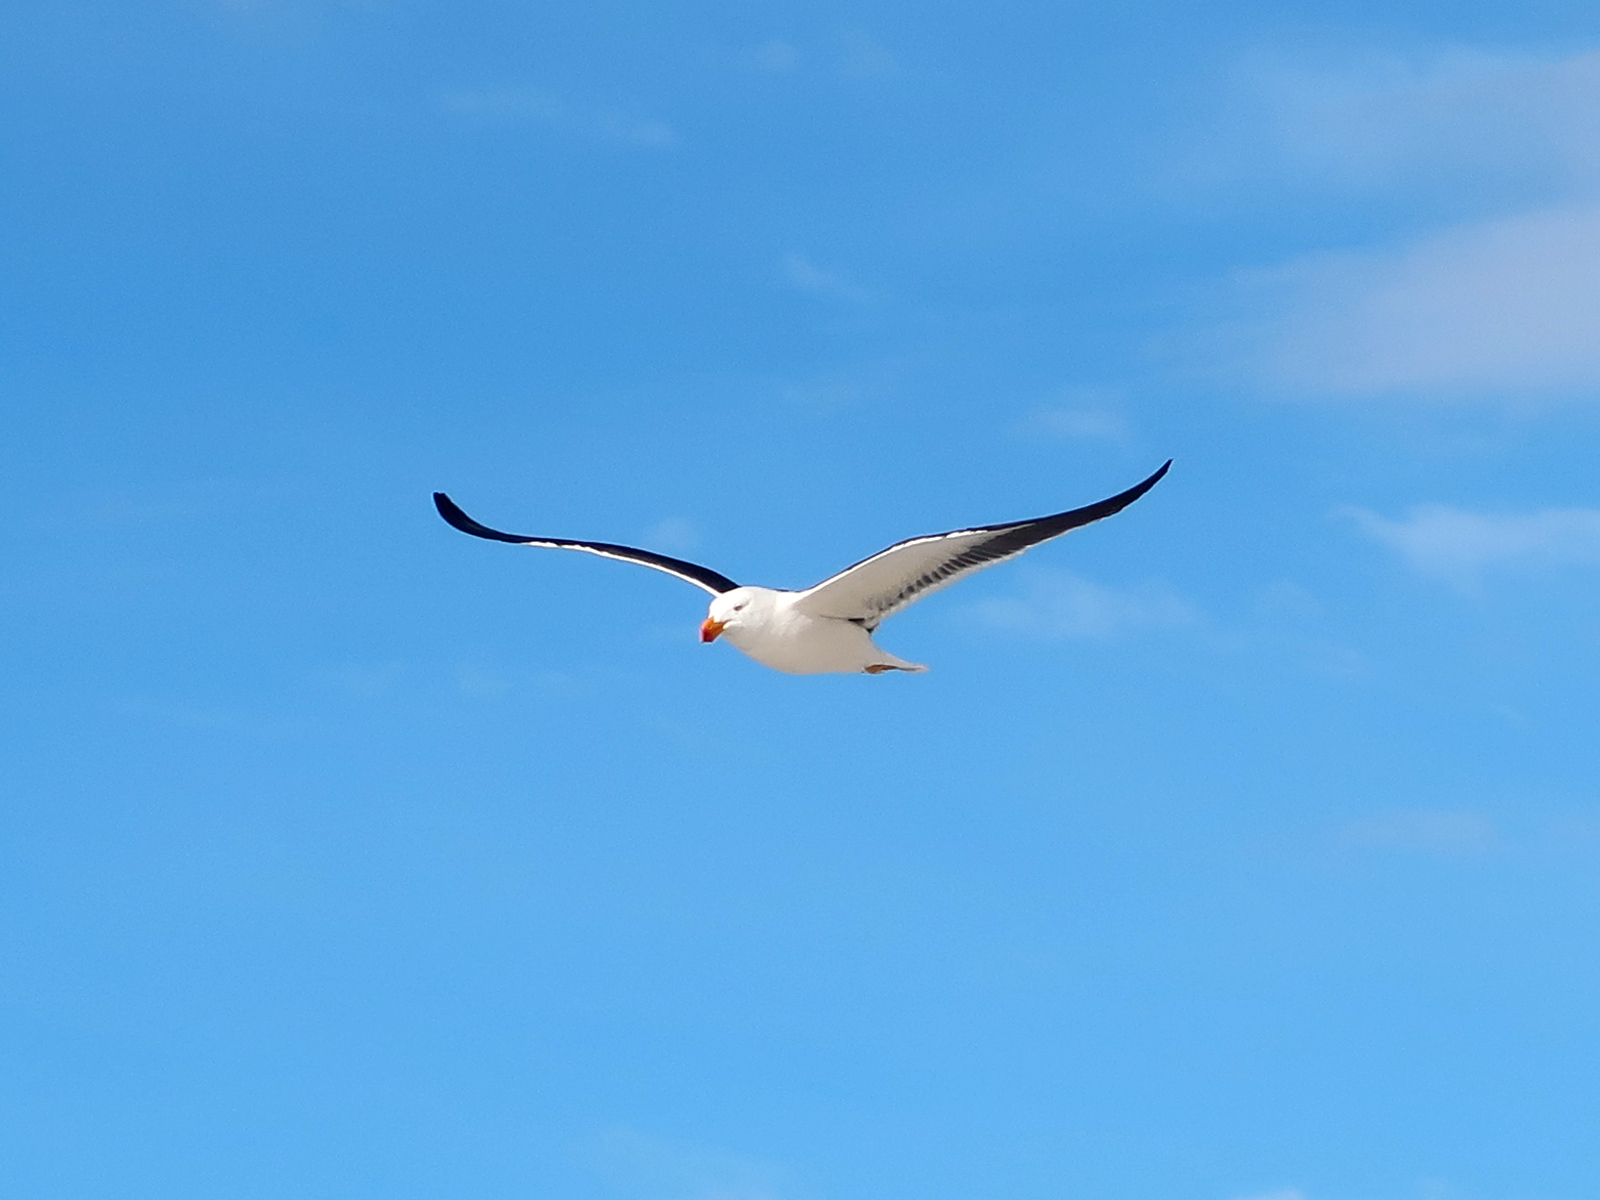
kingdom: Animalia
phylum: Chordata
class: Aves
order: Charadriiformes
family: Laridae
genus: Larus
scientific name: Larus pacificus
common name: Pacific gull
